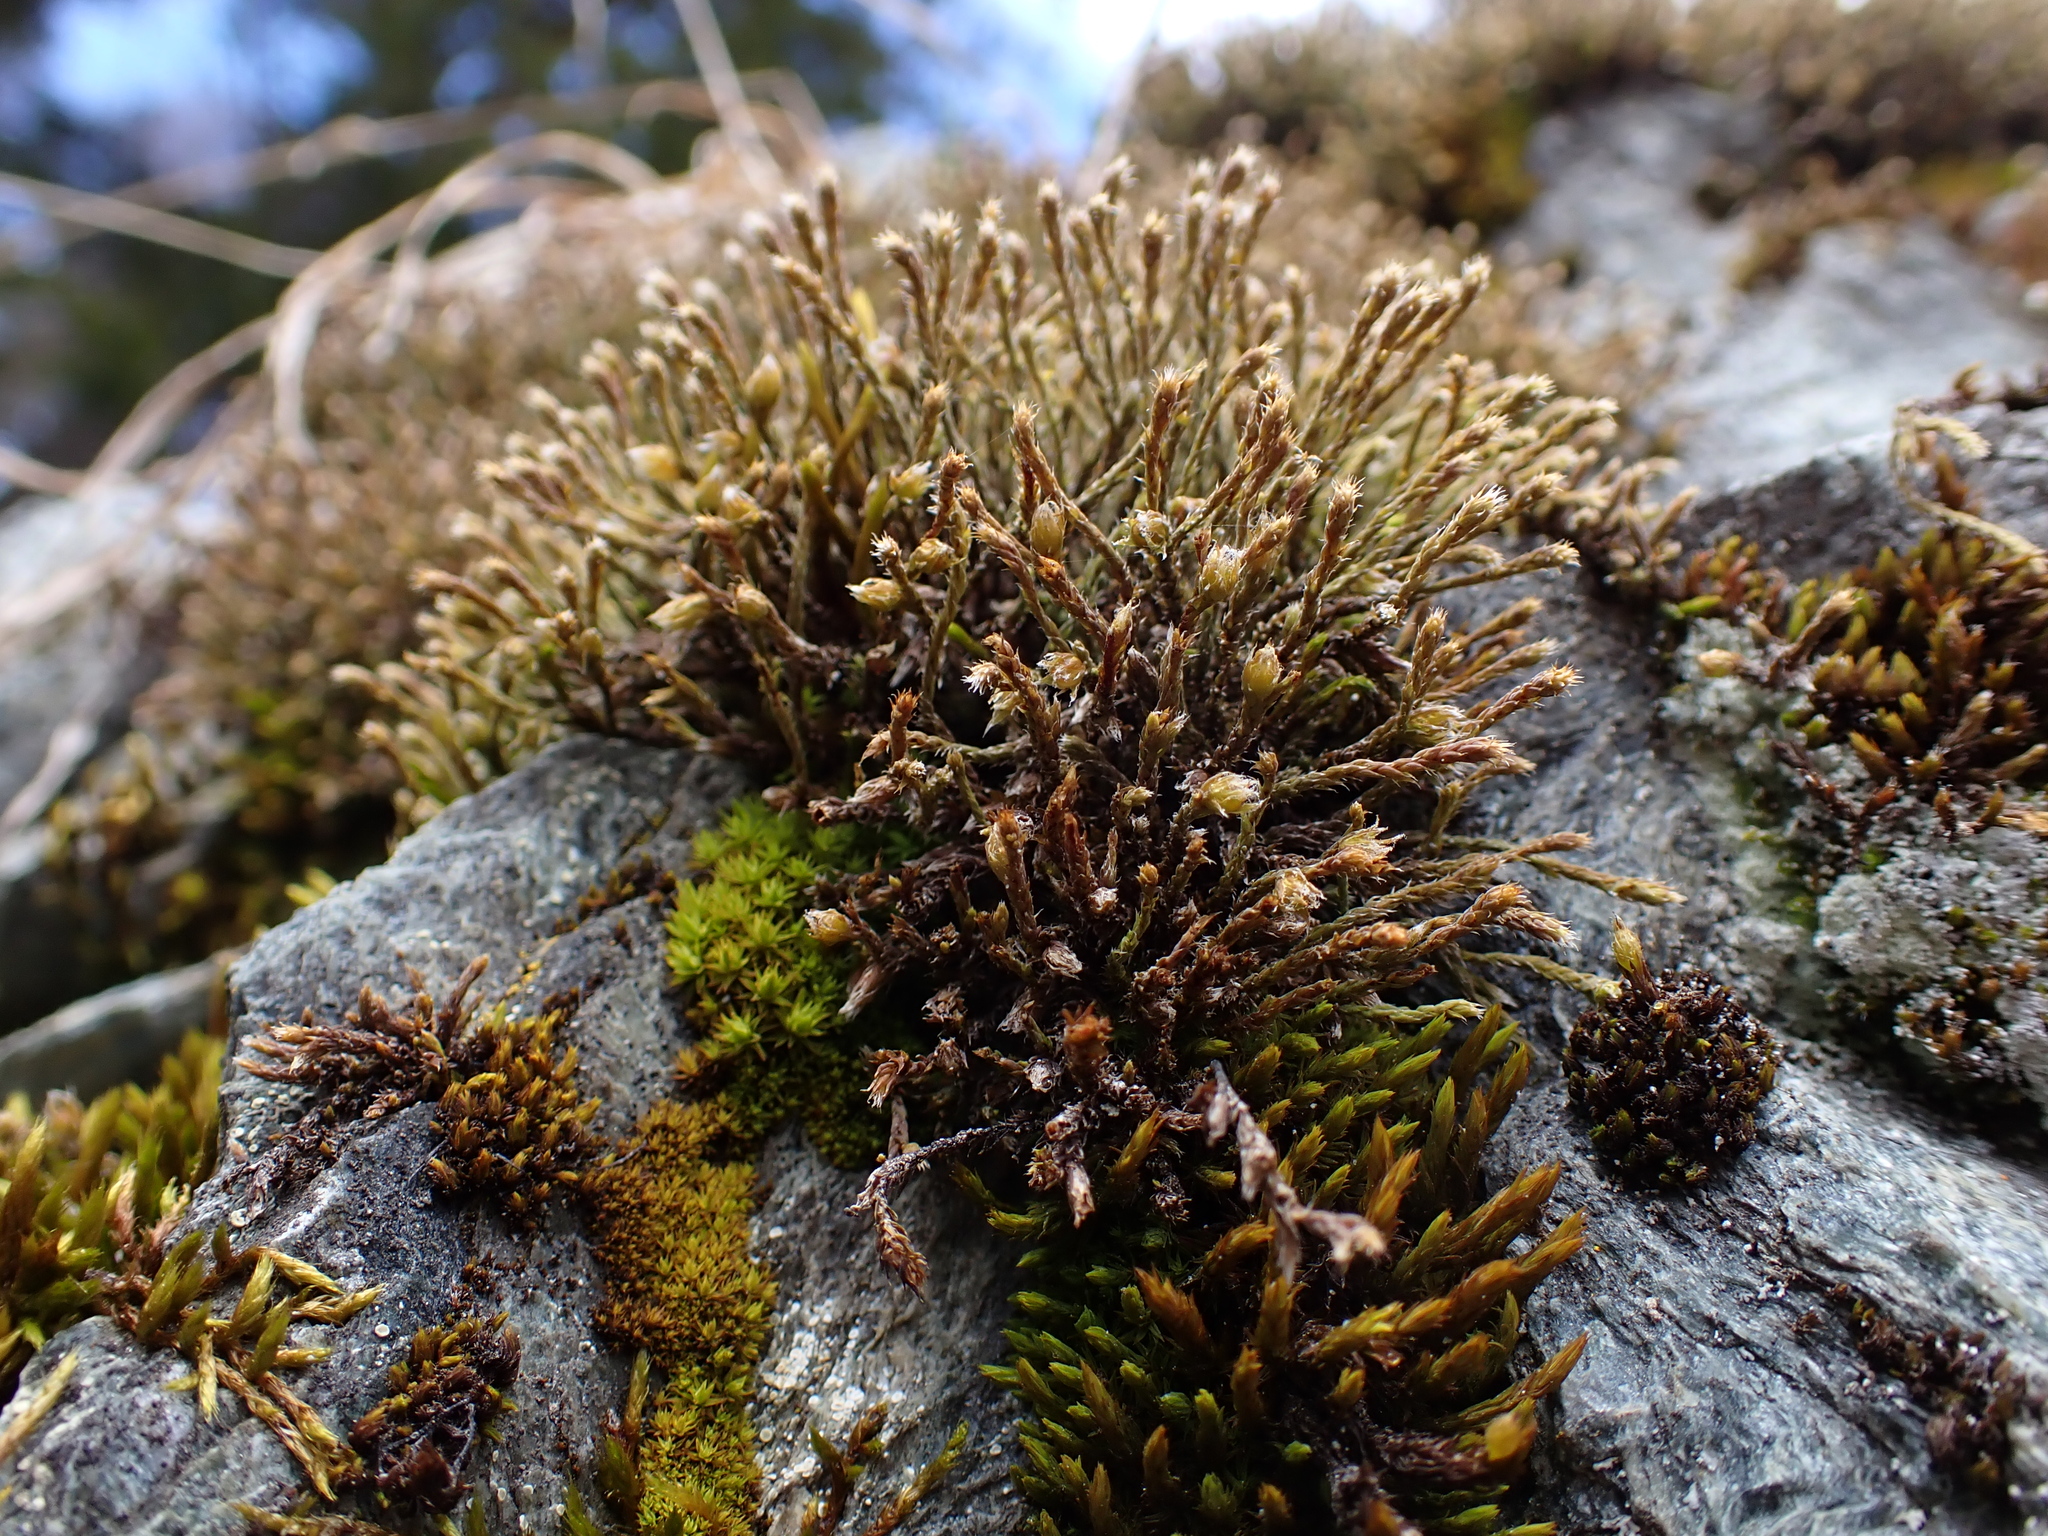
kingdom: Plantae
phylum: Bryophyta
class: Bryopsida
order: Hedwigiales
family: Hedwigiaceae
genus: Hedwigia
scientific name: Hedwigia ciliata
